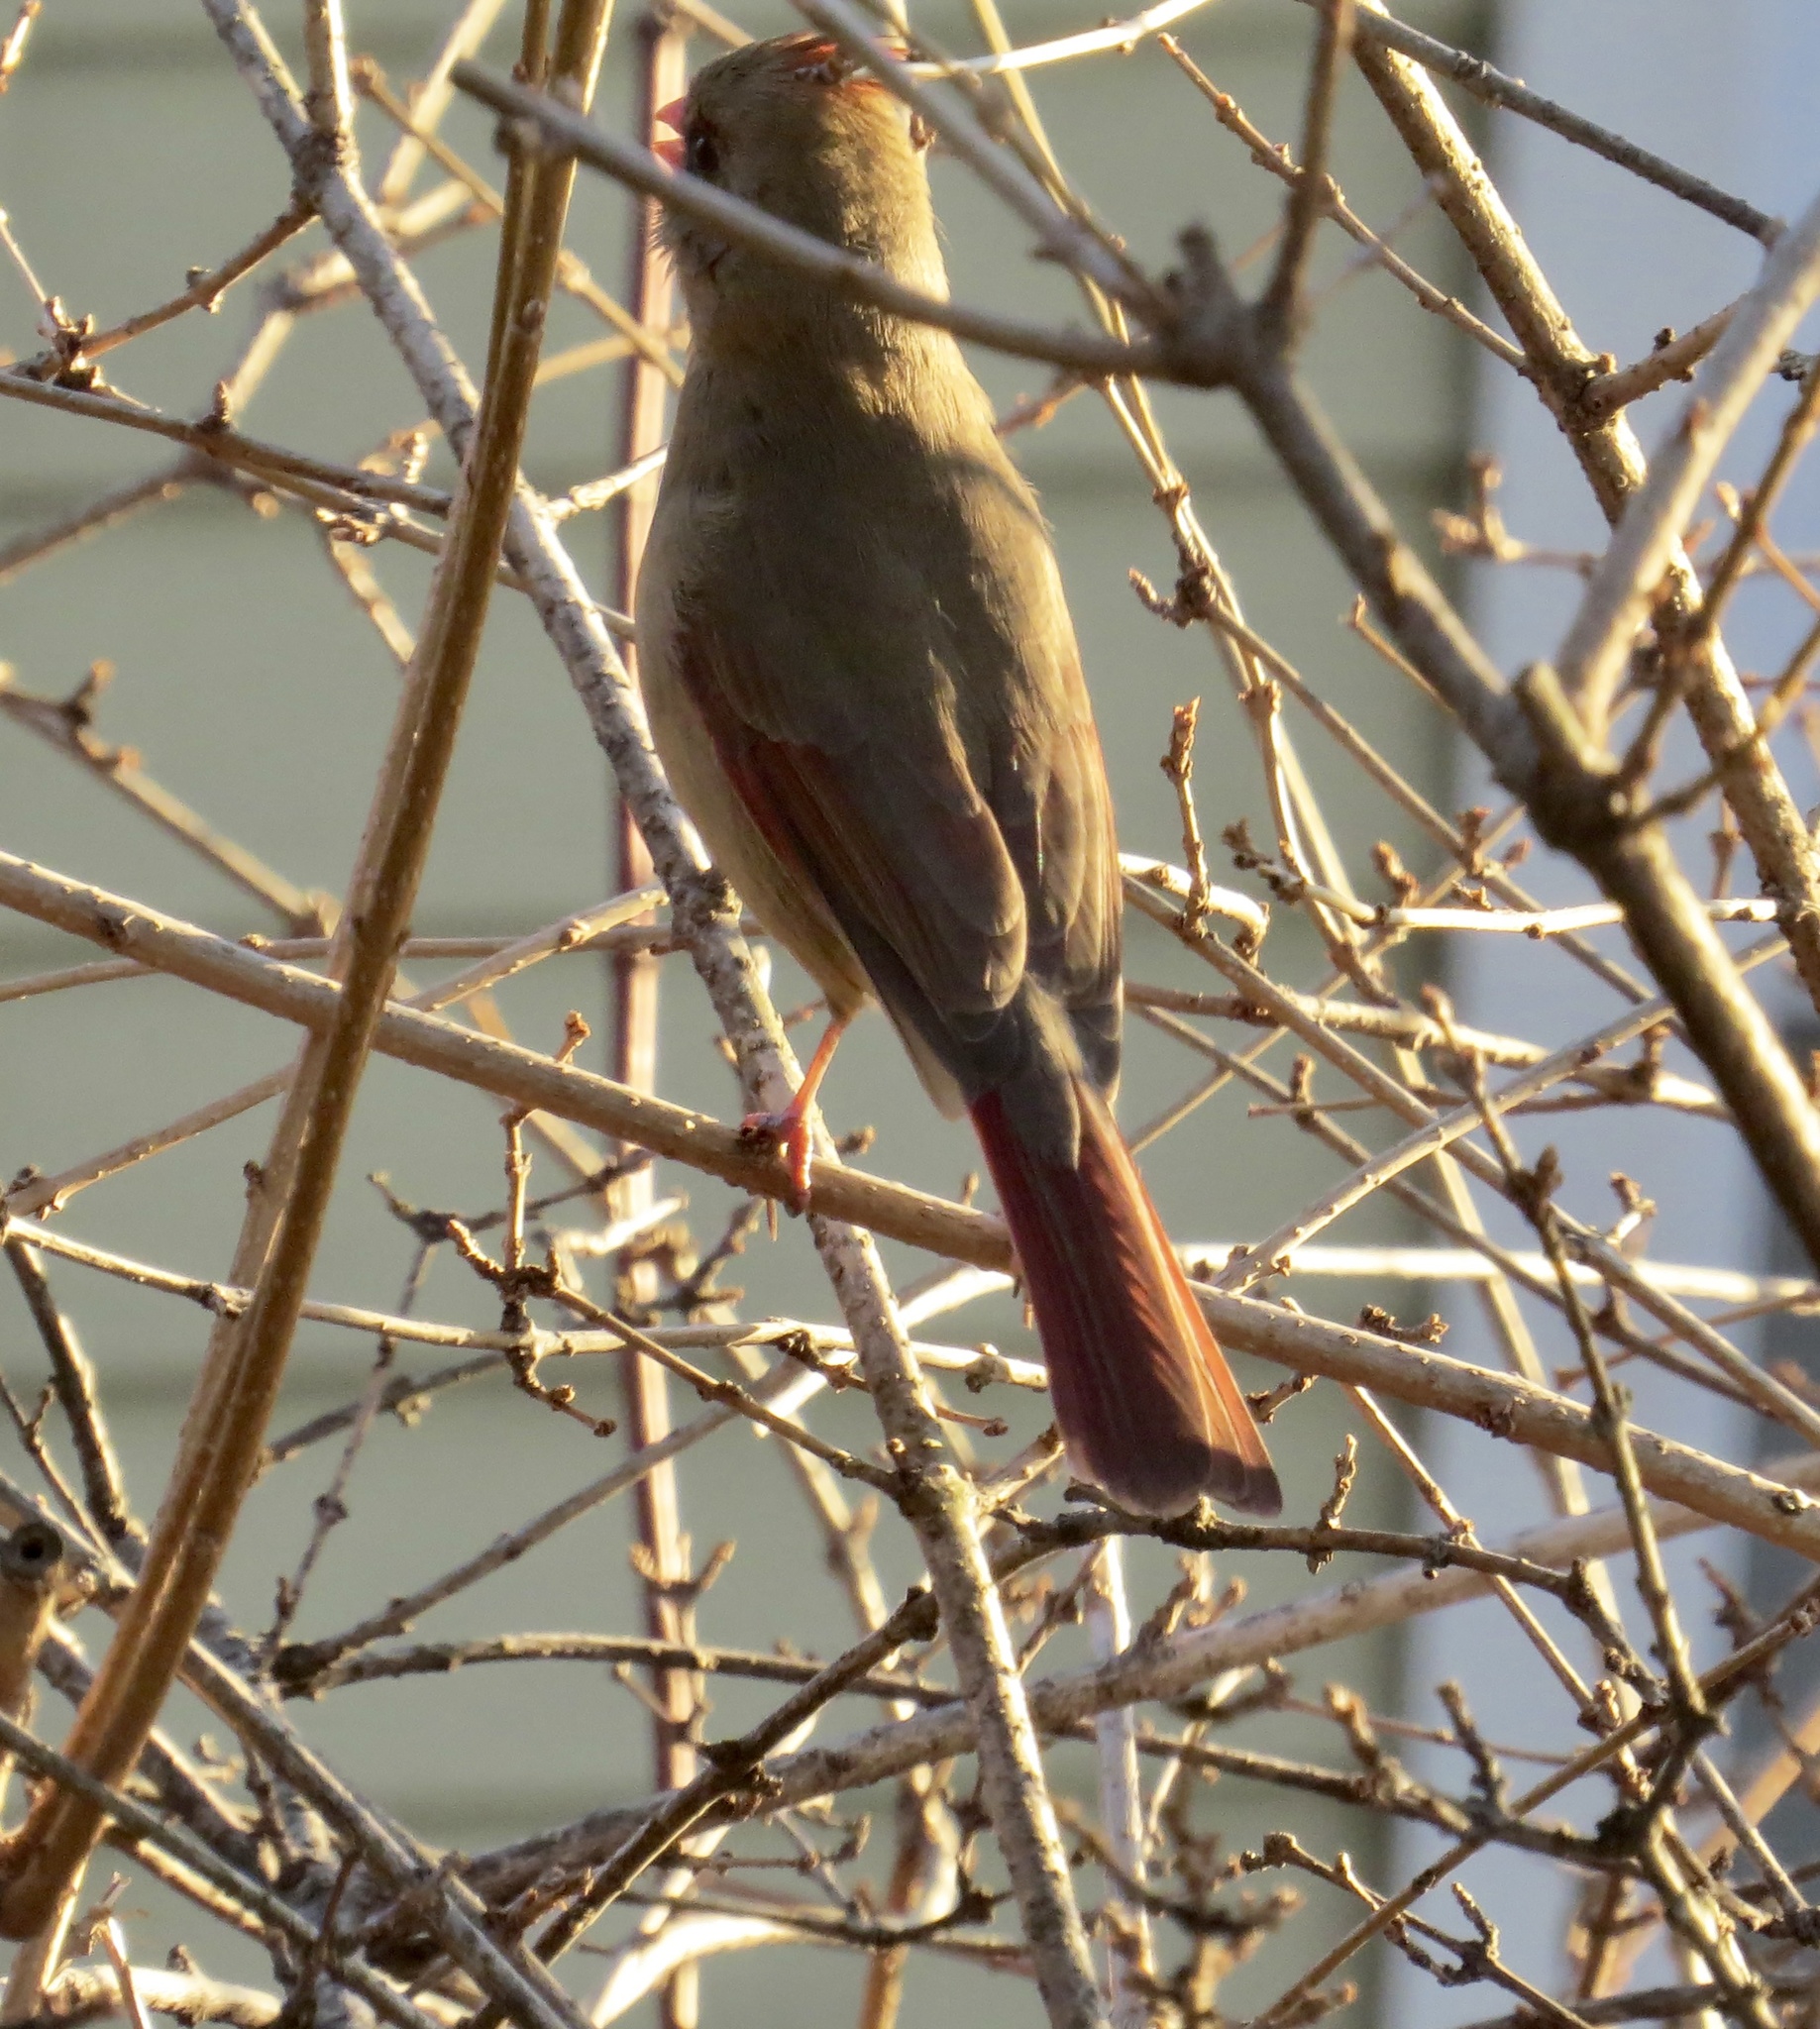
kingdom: Animalia
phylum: Chordata
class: Aves
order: Passeriformes
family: Cardinalidae
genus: Cardinalis
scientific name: Cardinalis cardinalis
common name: Northern cardinal
